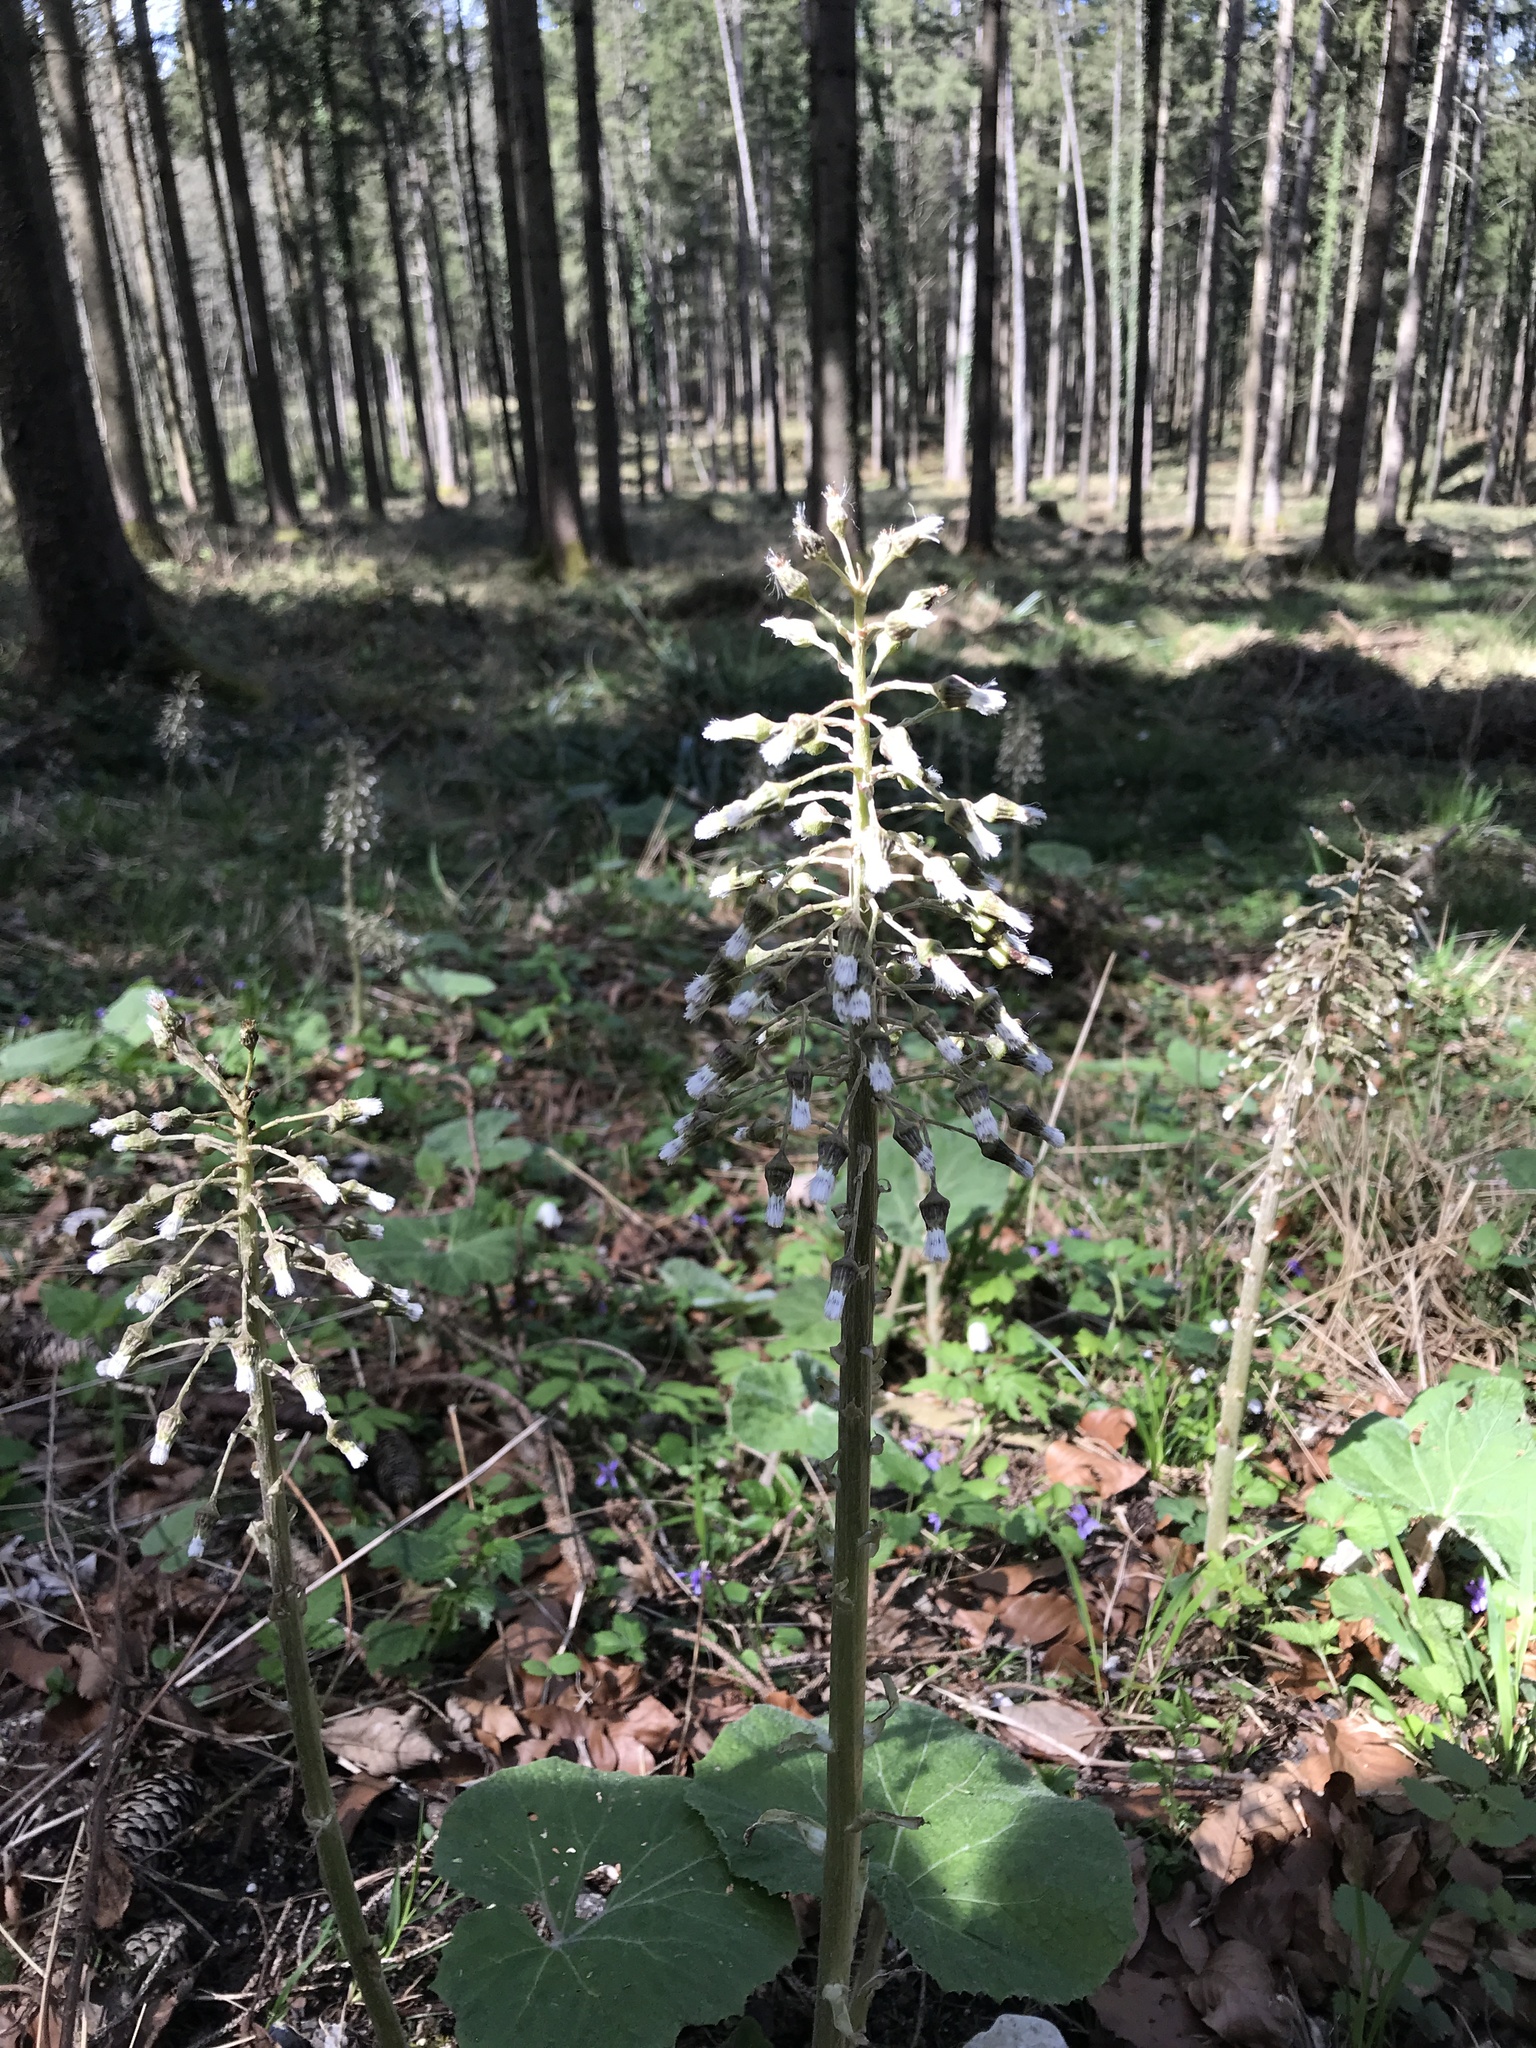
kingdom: Plantae
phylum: Tracheophyta
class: Magnoliopsida
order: Asterales
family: Asteraceae
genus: Petasites
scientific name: Petasites albus
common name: White butterbur
